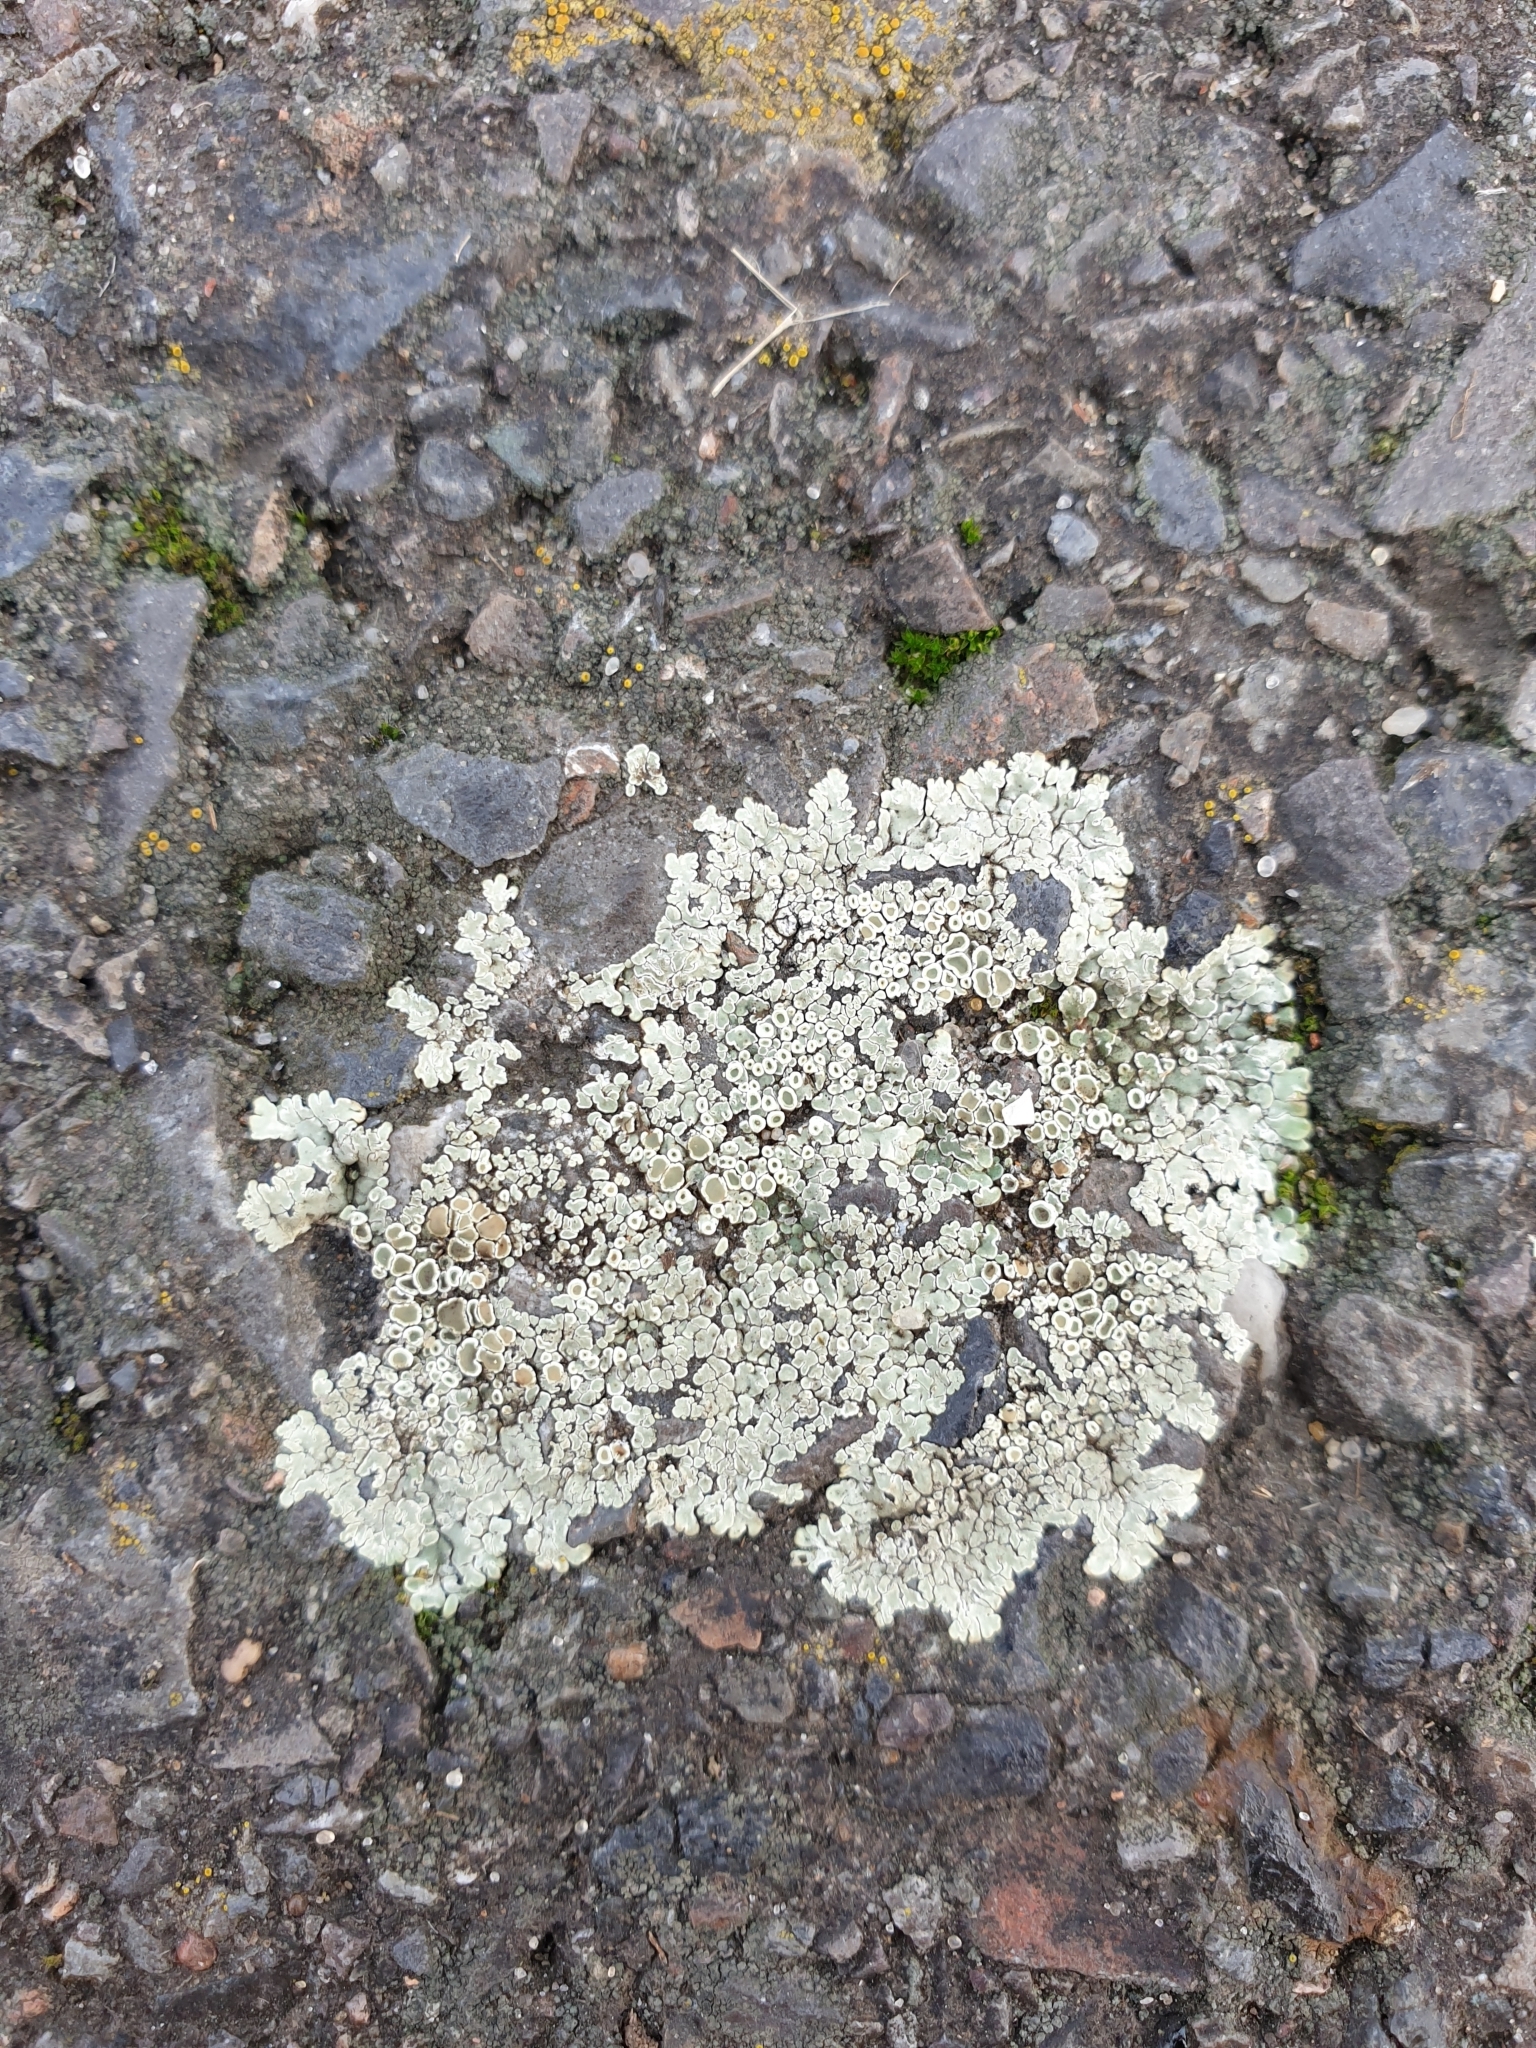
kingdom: Fungi
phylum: Ascomycota
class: Lecanoromycetes
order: Lecanorales
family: Lecanoraceae
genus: Protoparmeliopsis
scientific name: Protoparmeliopsis muralis
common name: Stonewall rim lichen
